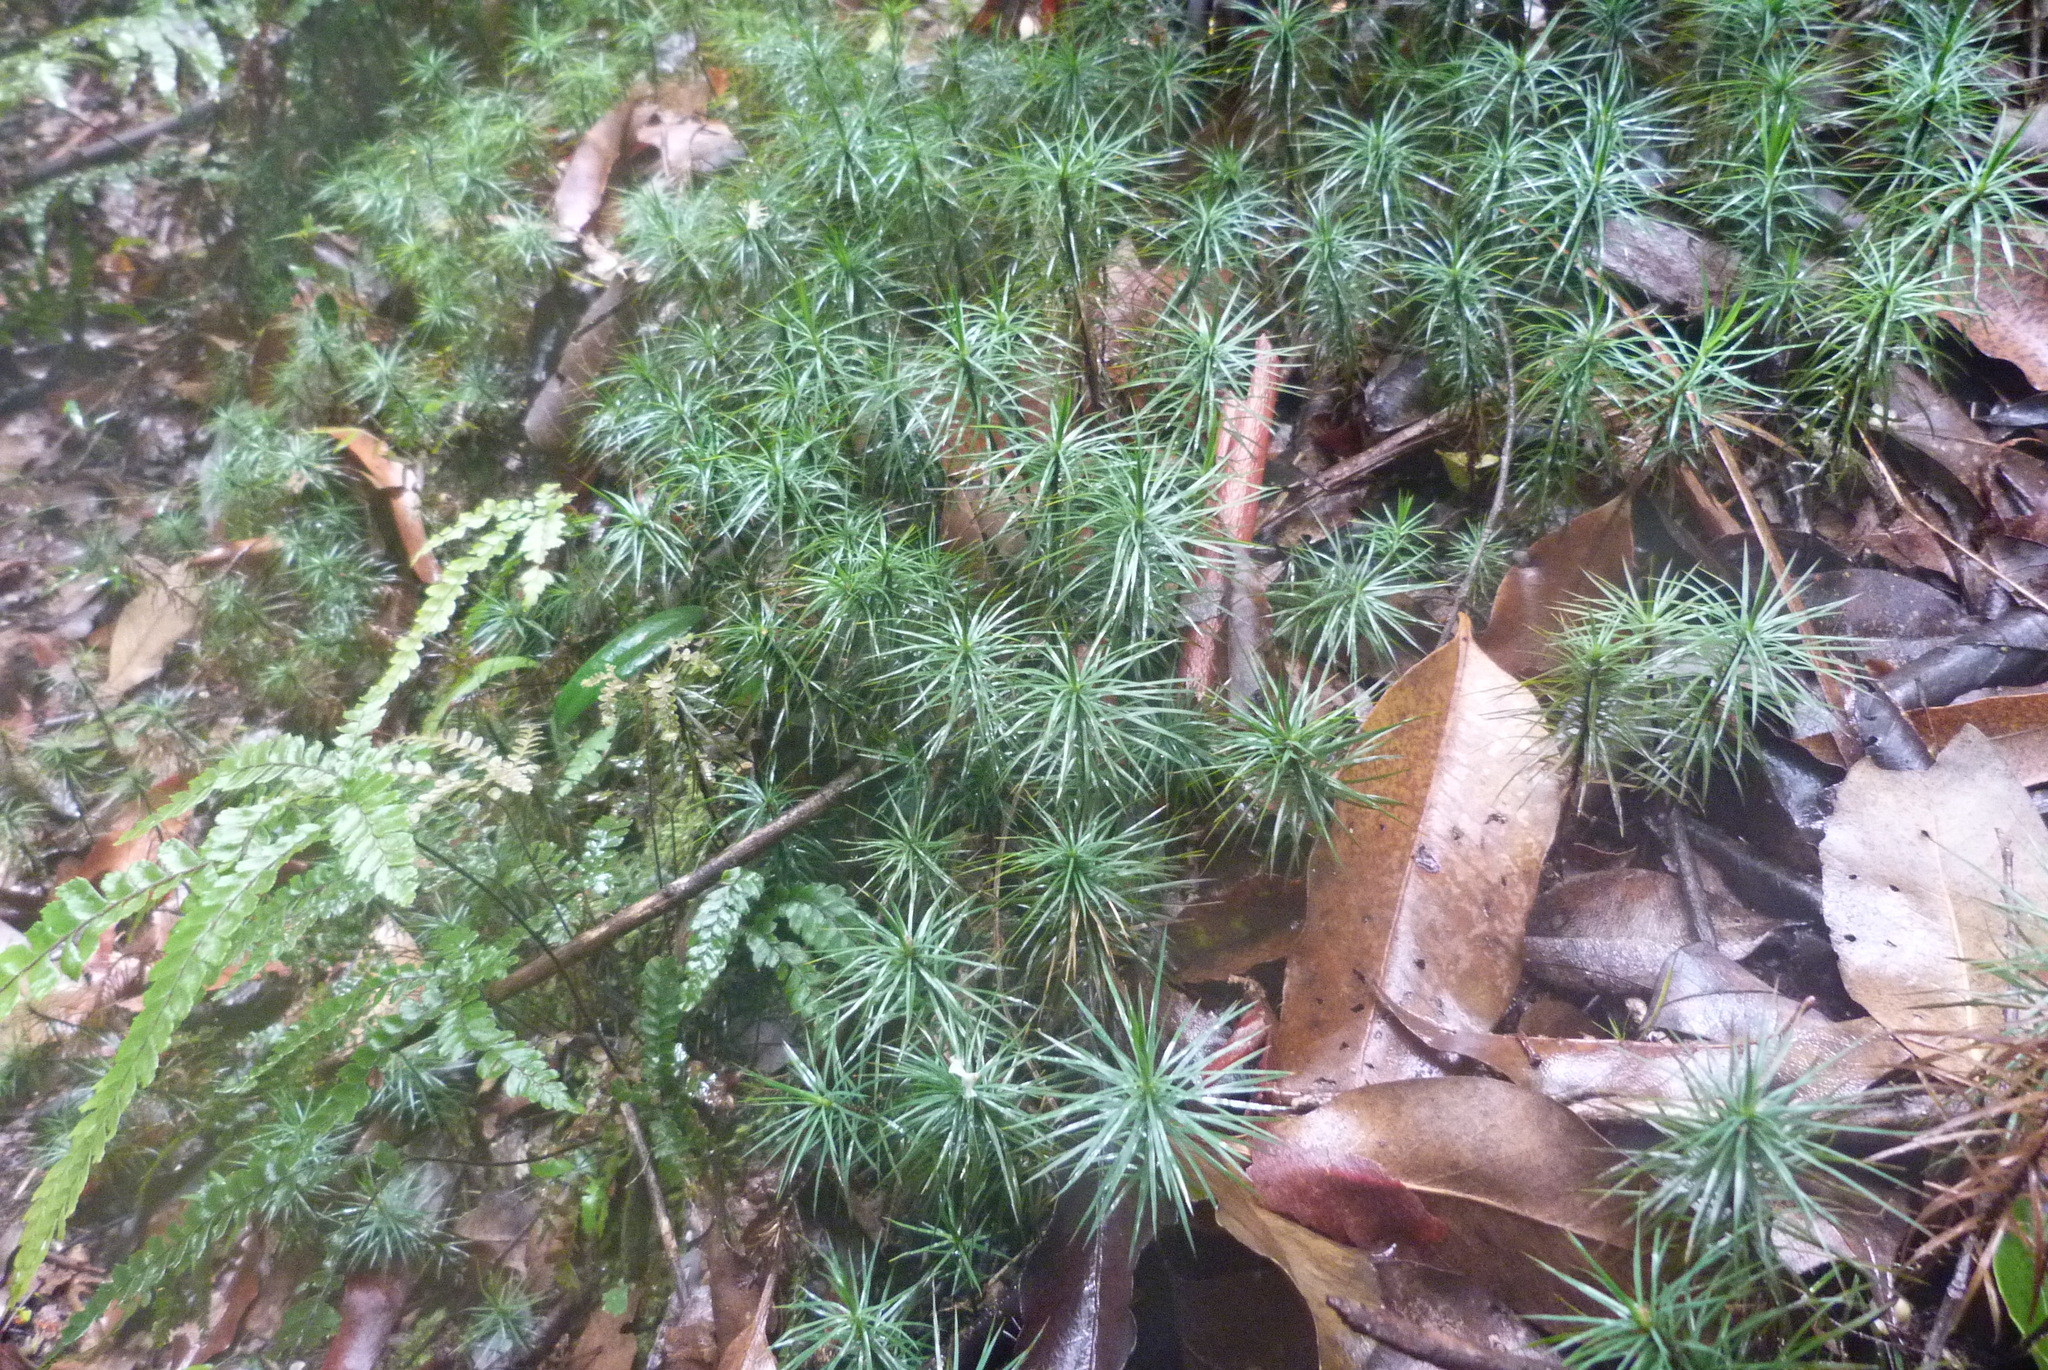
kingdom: Plantae
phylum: Bryophyta
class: Polytrichopsida
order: Polytrichales
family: Polytrichaceae
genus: Dawsonia
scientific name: Dawsonia superba
